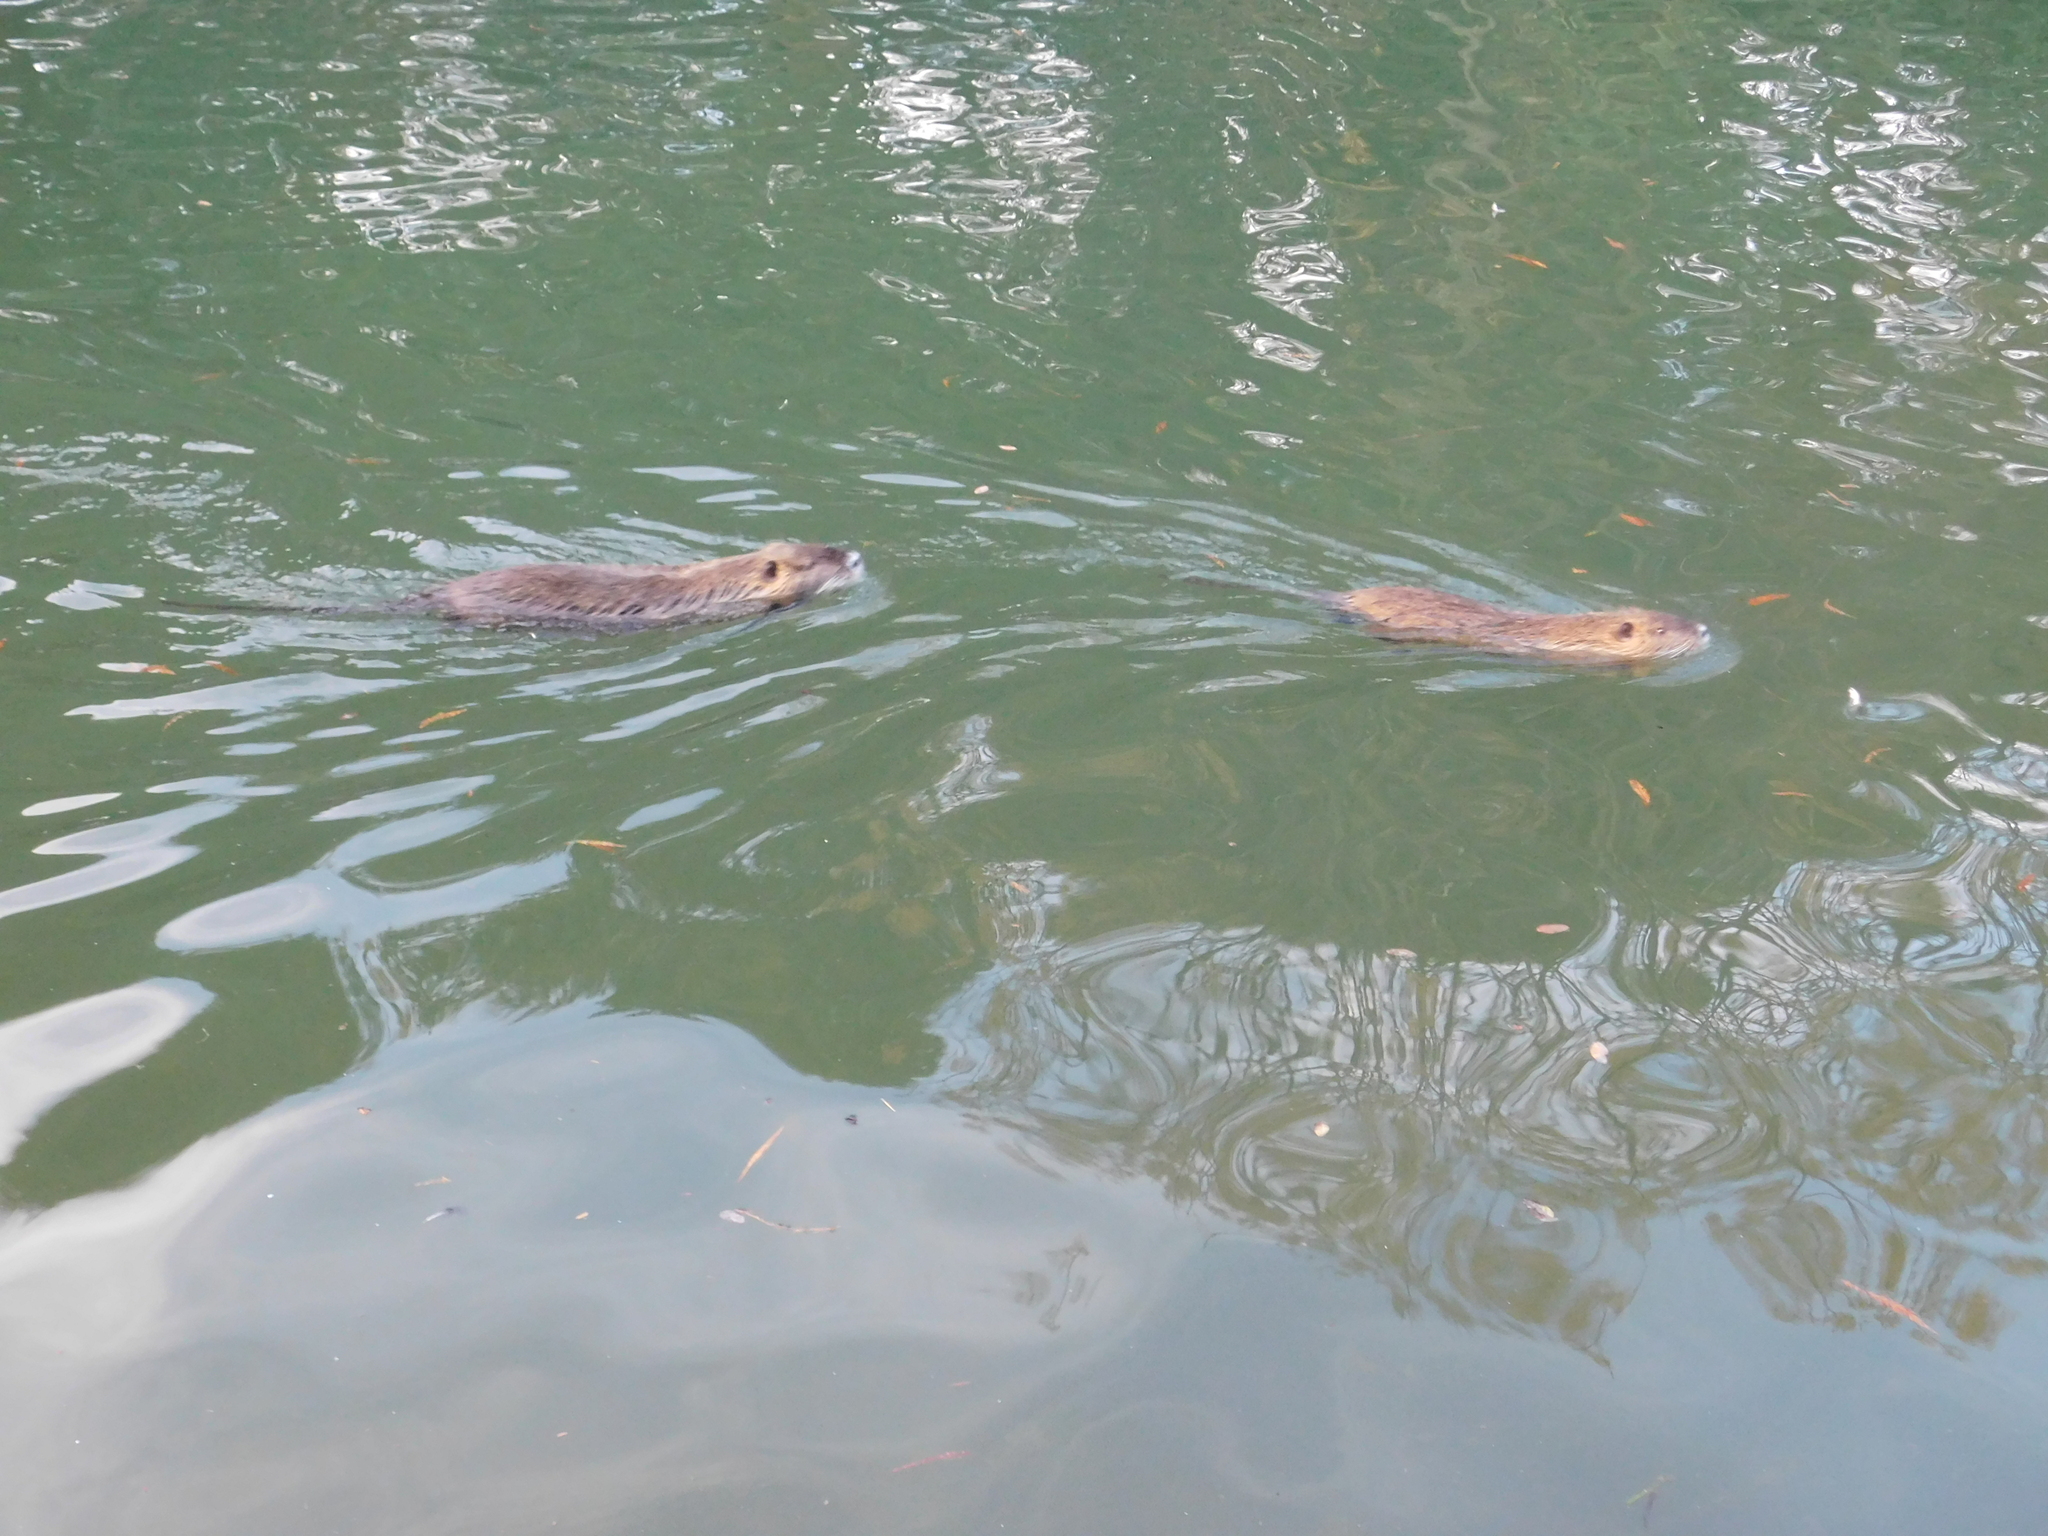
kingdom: Animalia
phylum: Chordata
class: Mammalia
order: Rodentia
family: Myocastoridae
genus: Myocastor
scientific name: Myocastor coypus
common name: Coypu
